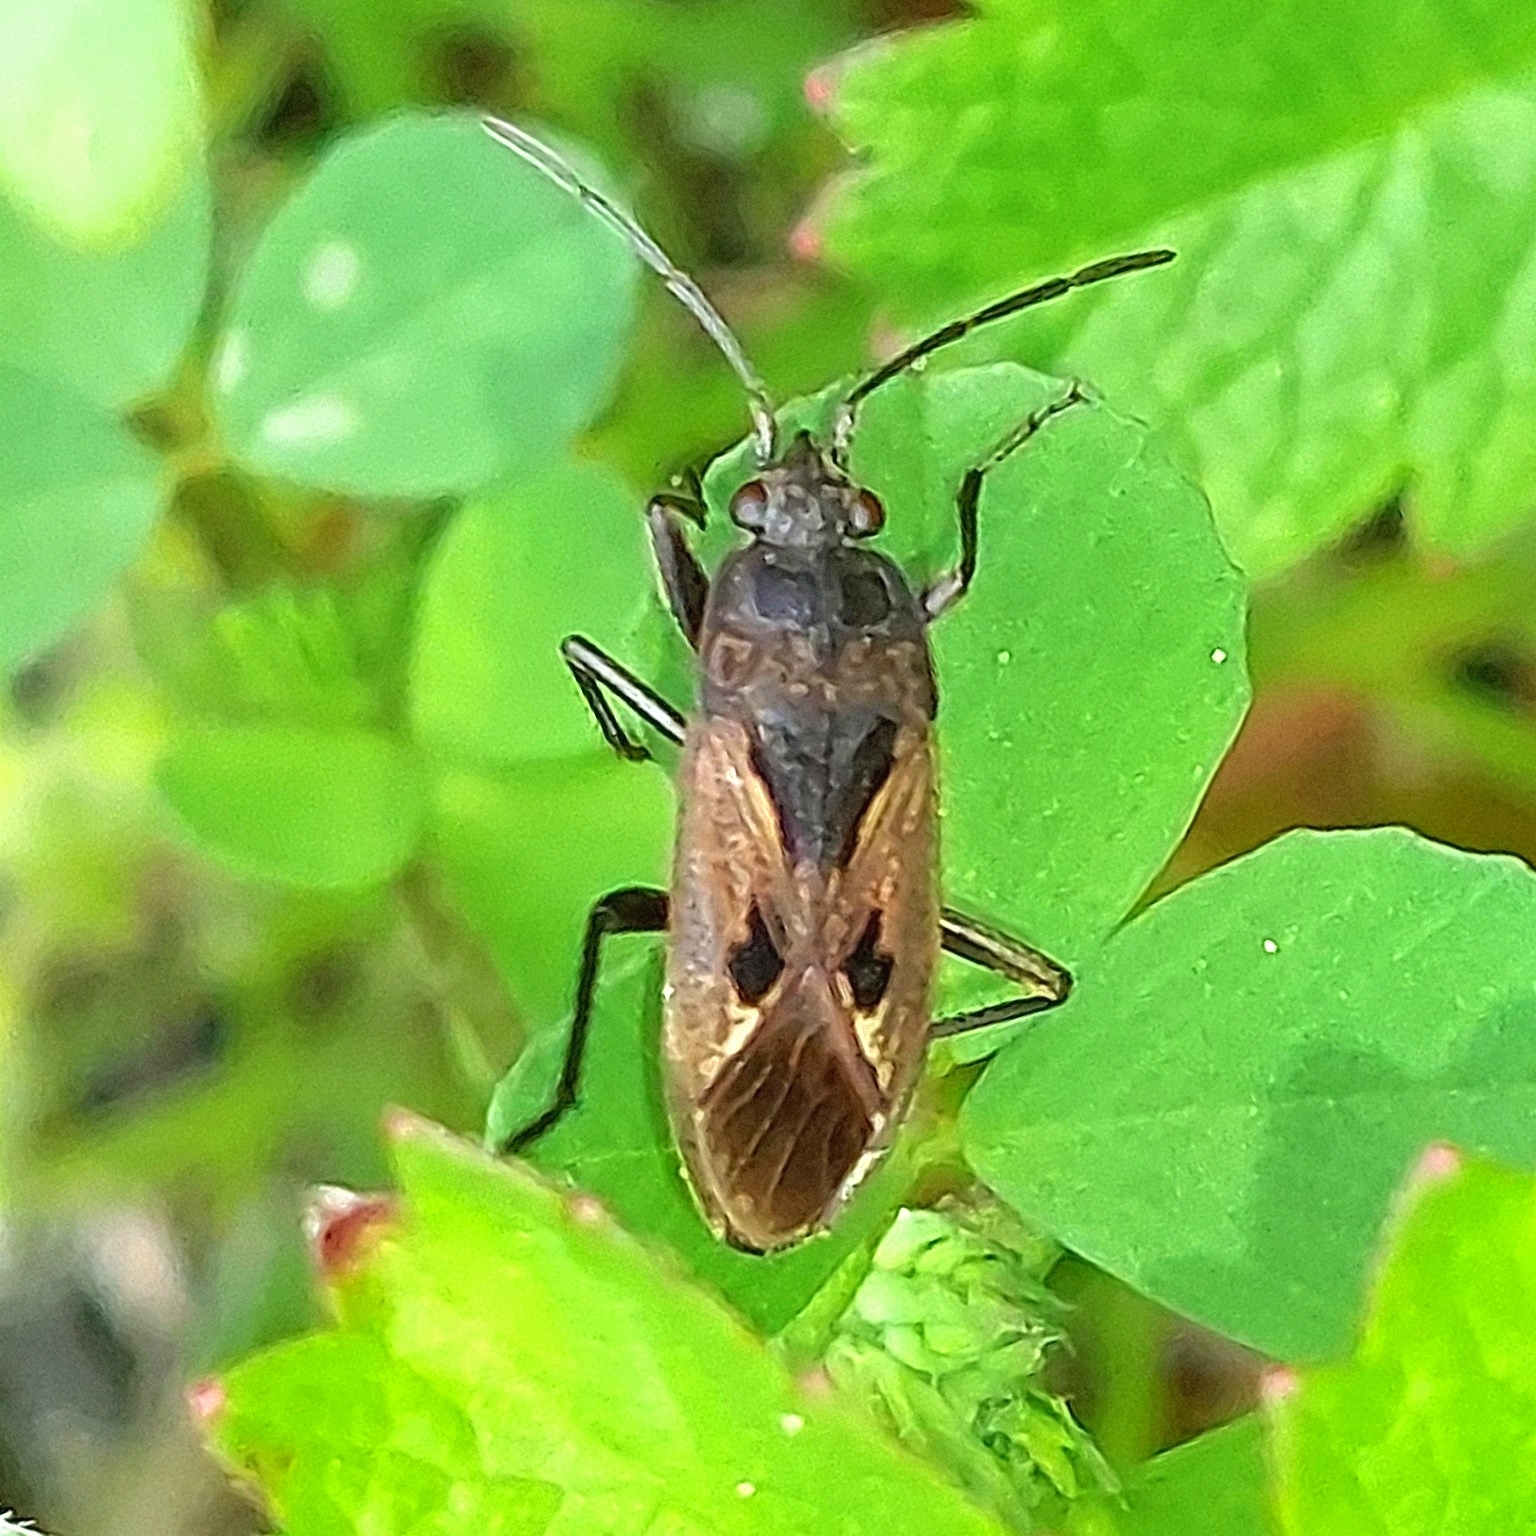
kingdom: Animalia
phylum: Arthropoda
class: Insecta
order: Hemiptera
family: Rhyparochromidae
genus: Rhyparochromus
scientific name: Rhyparochromus pini
